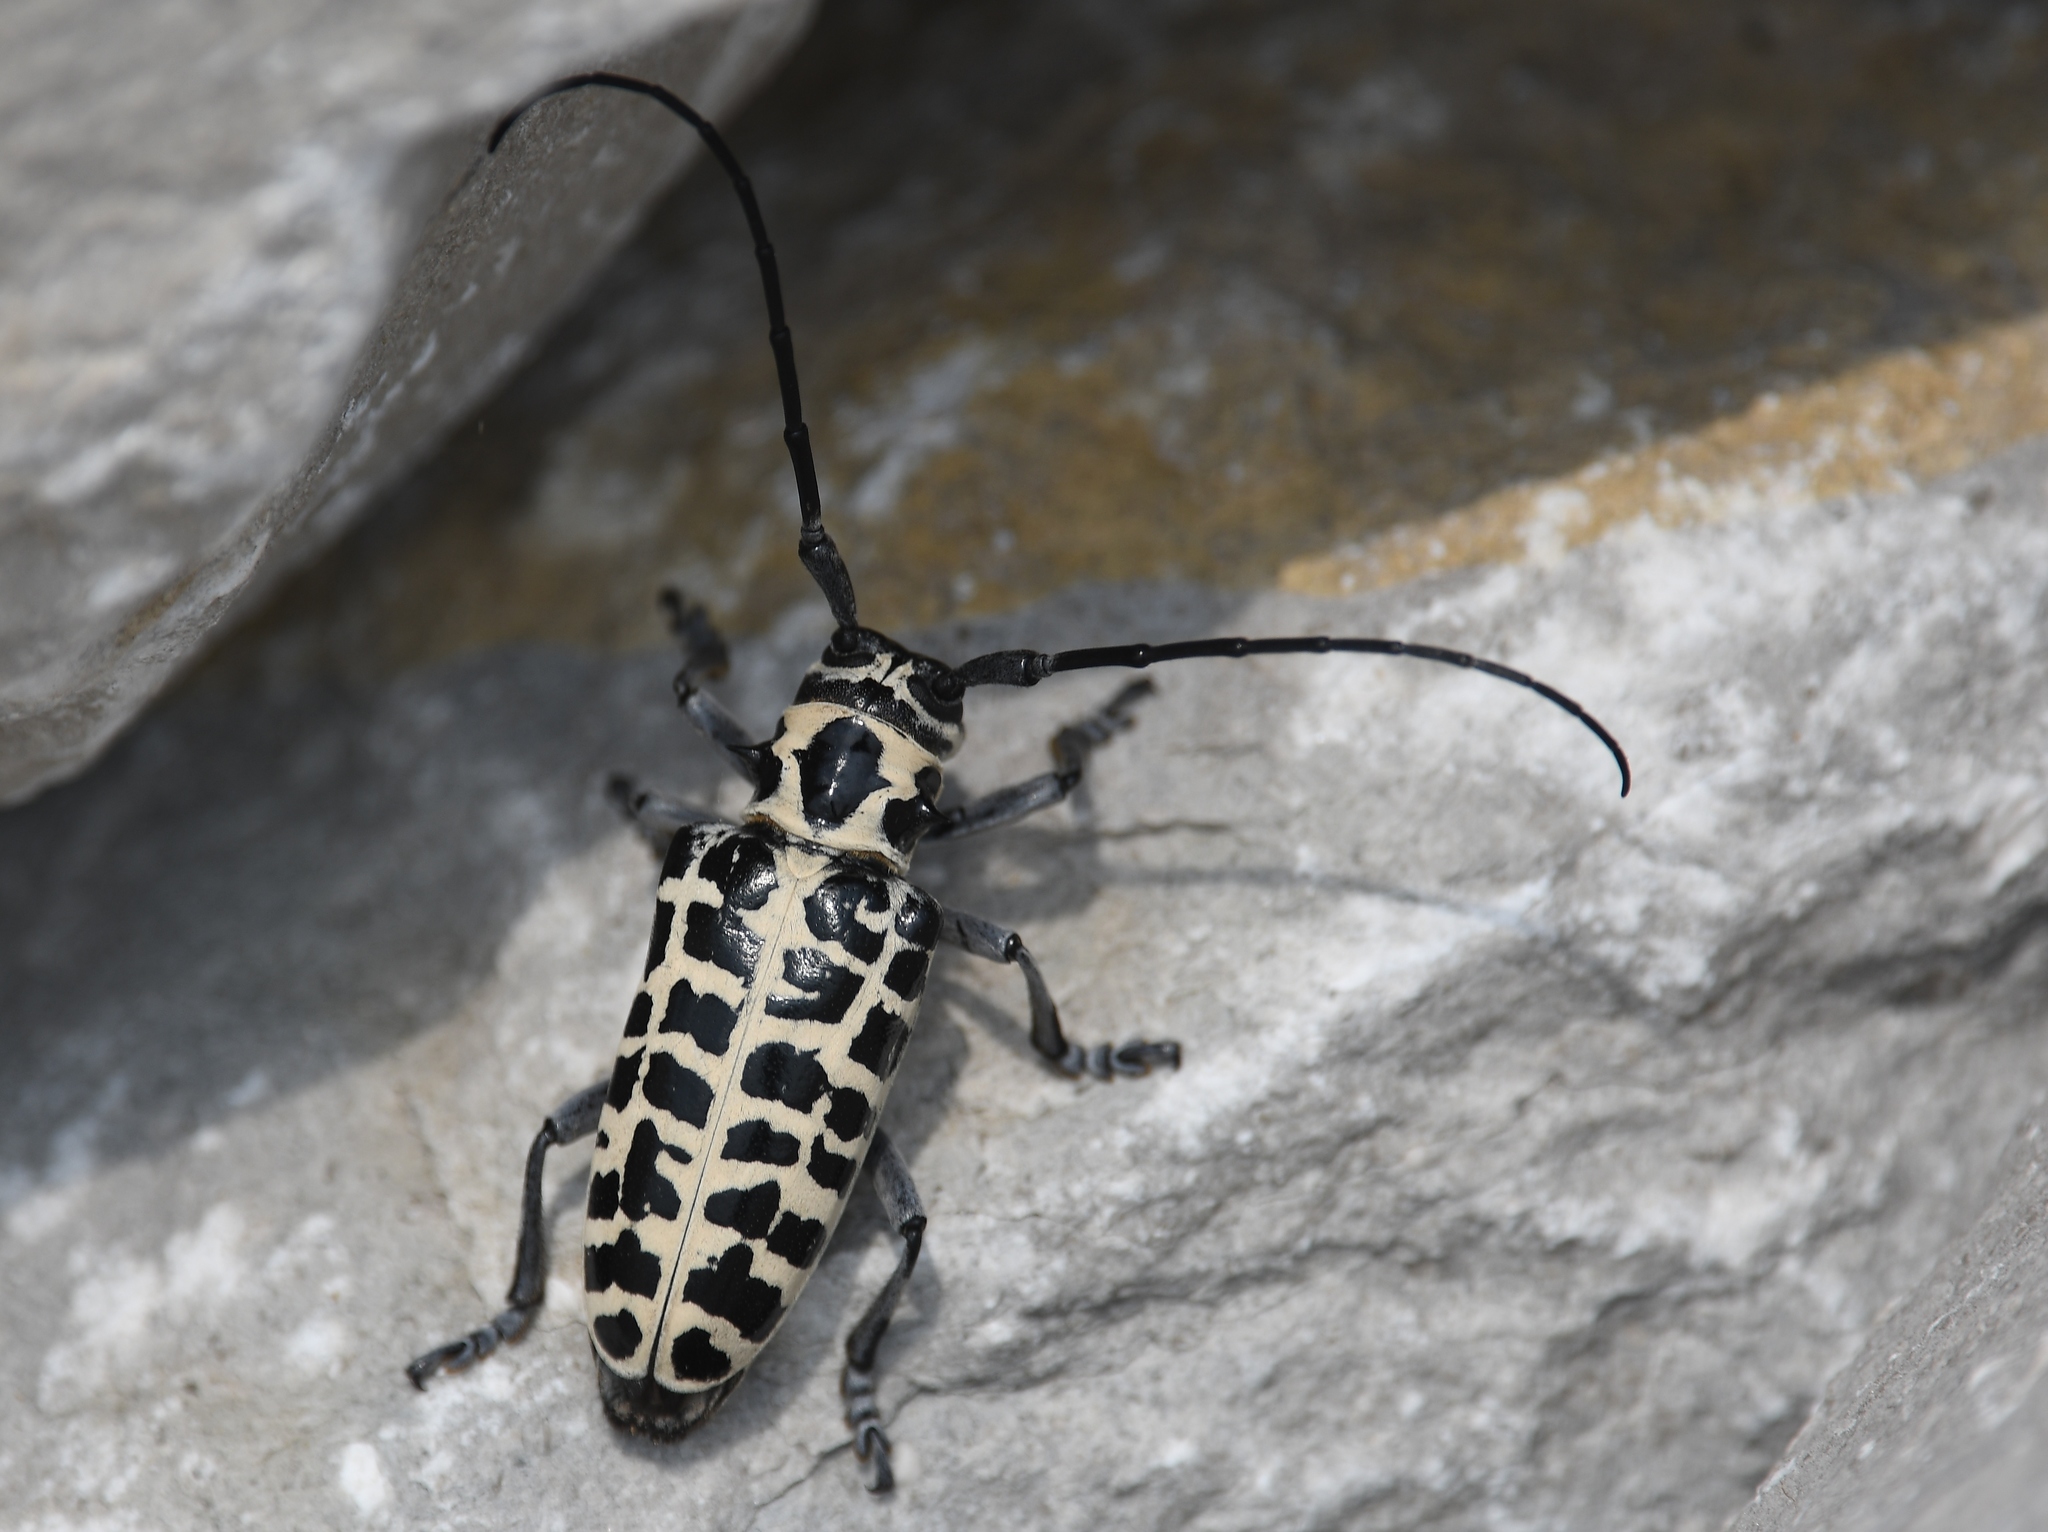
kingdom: Animalia
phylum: Arthropoda
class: Insecta
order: Coleoptera
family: Cerambycidae
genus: Plectrodera
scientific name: Plectrodera scalator
